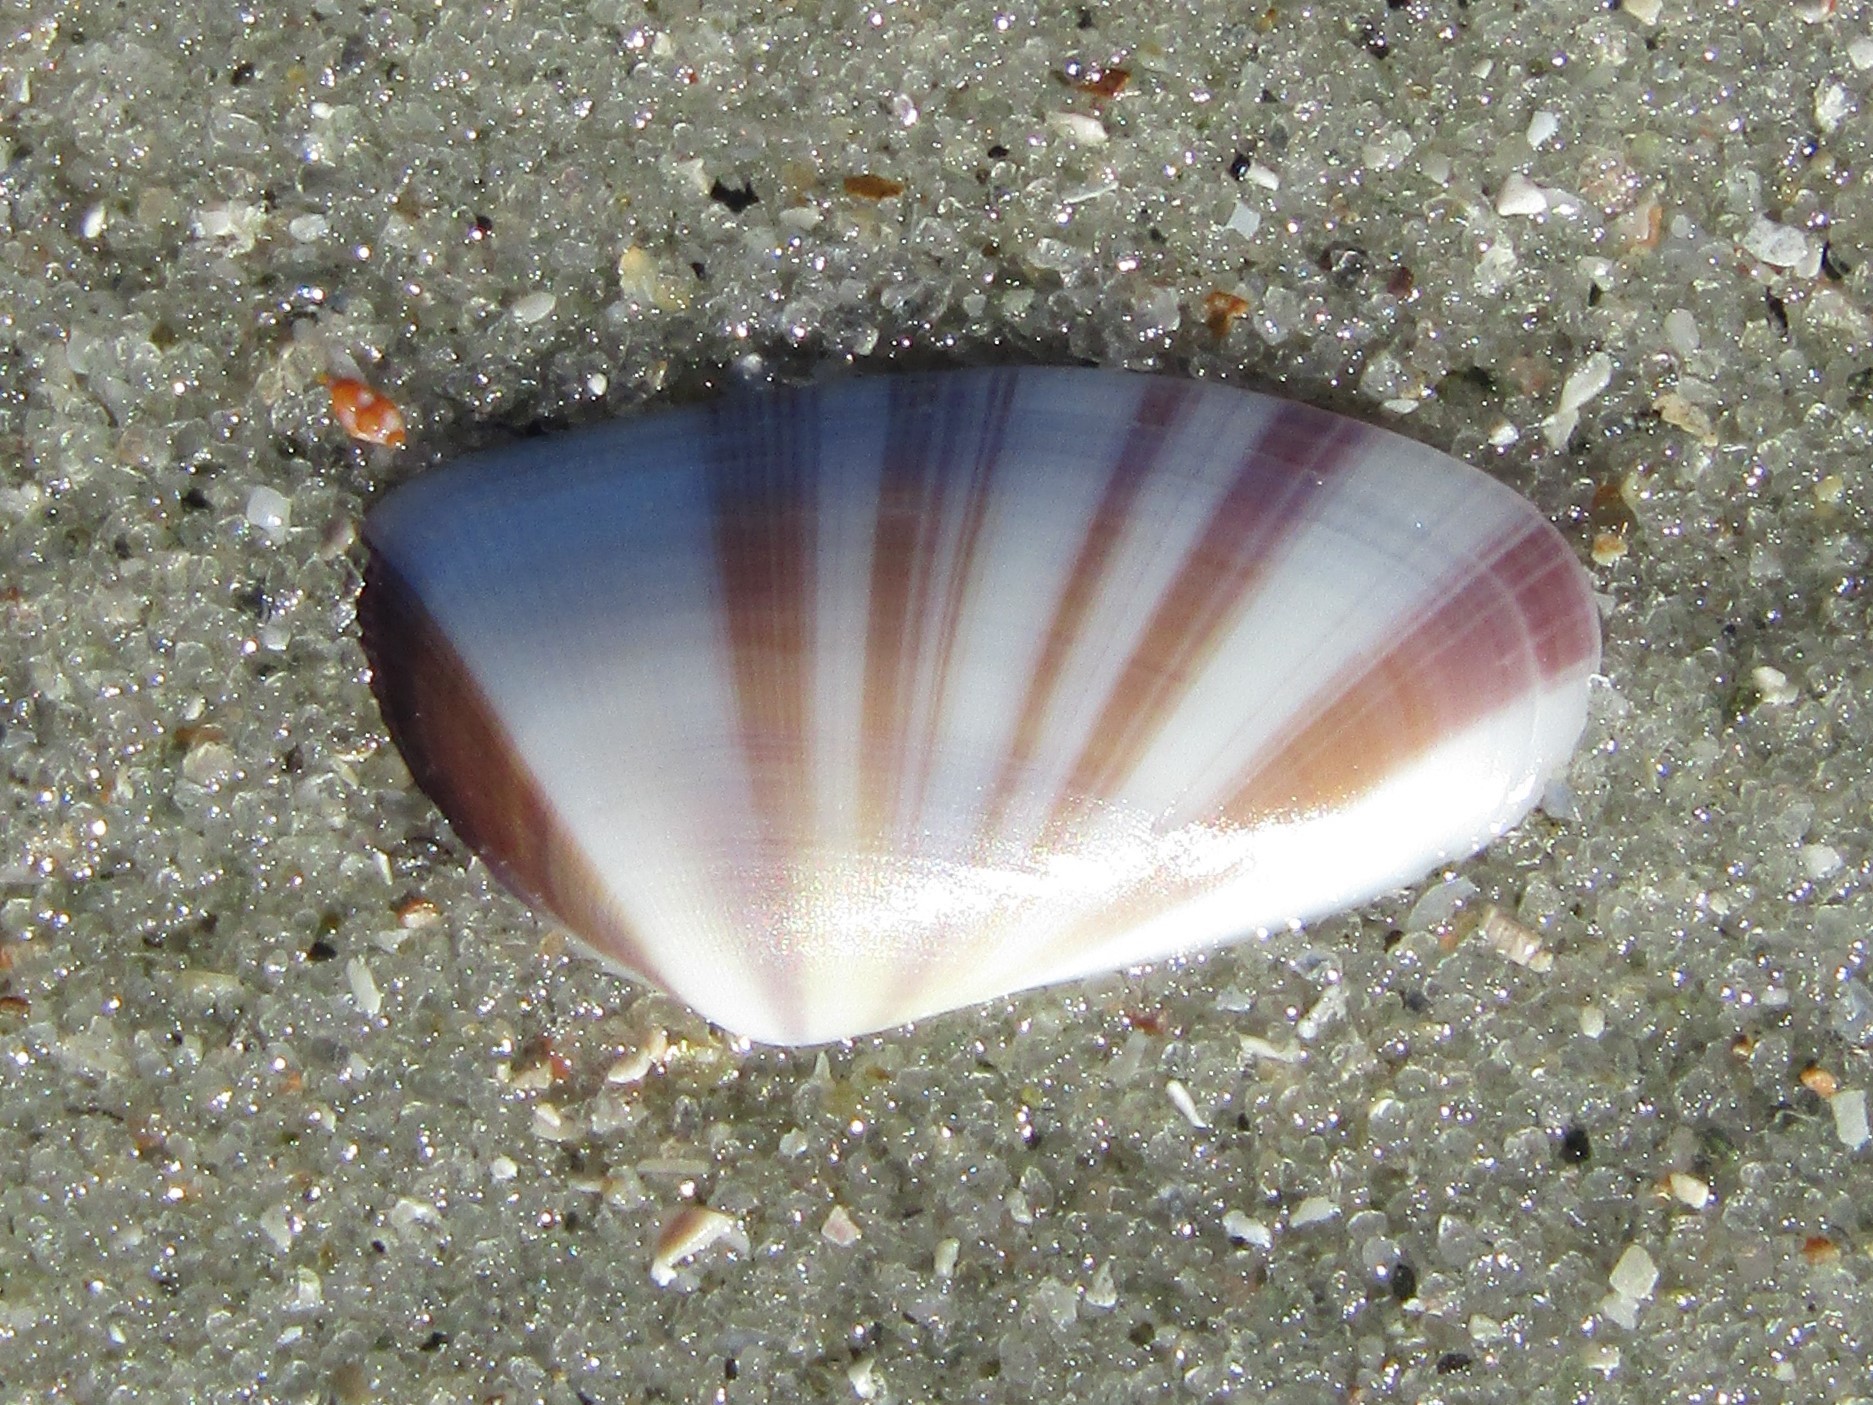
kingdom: Animalia
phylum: Mollusca
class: Bivalvia
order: Cardiida
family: Donacidae
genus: Donax
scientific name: Donax variabilis
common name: Butterfly shell
